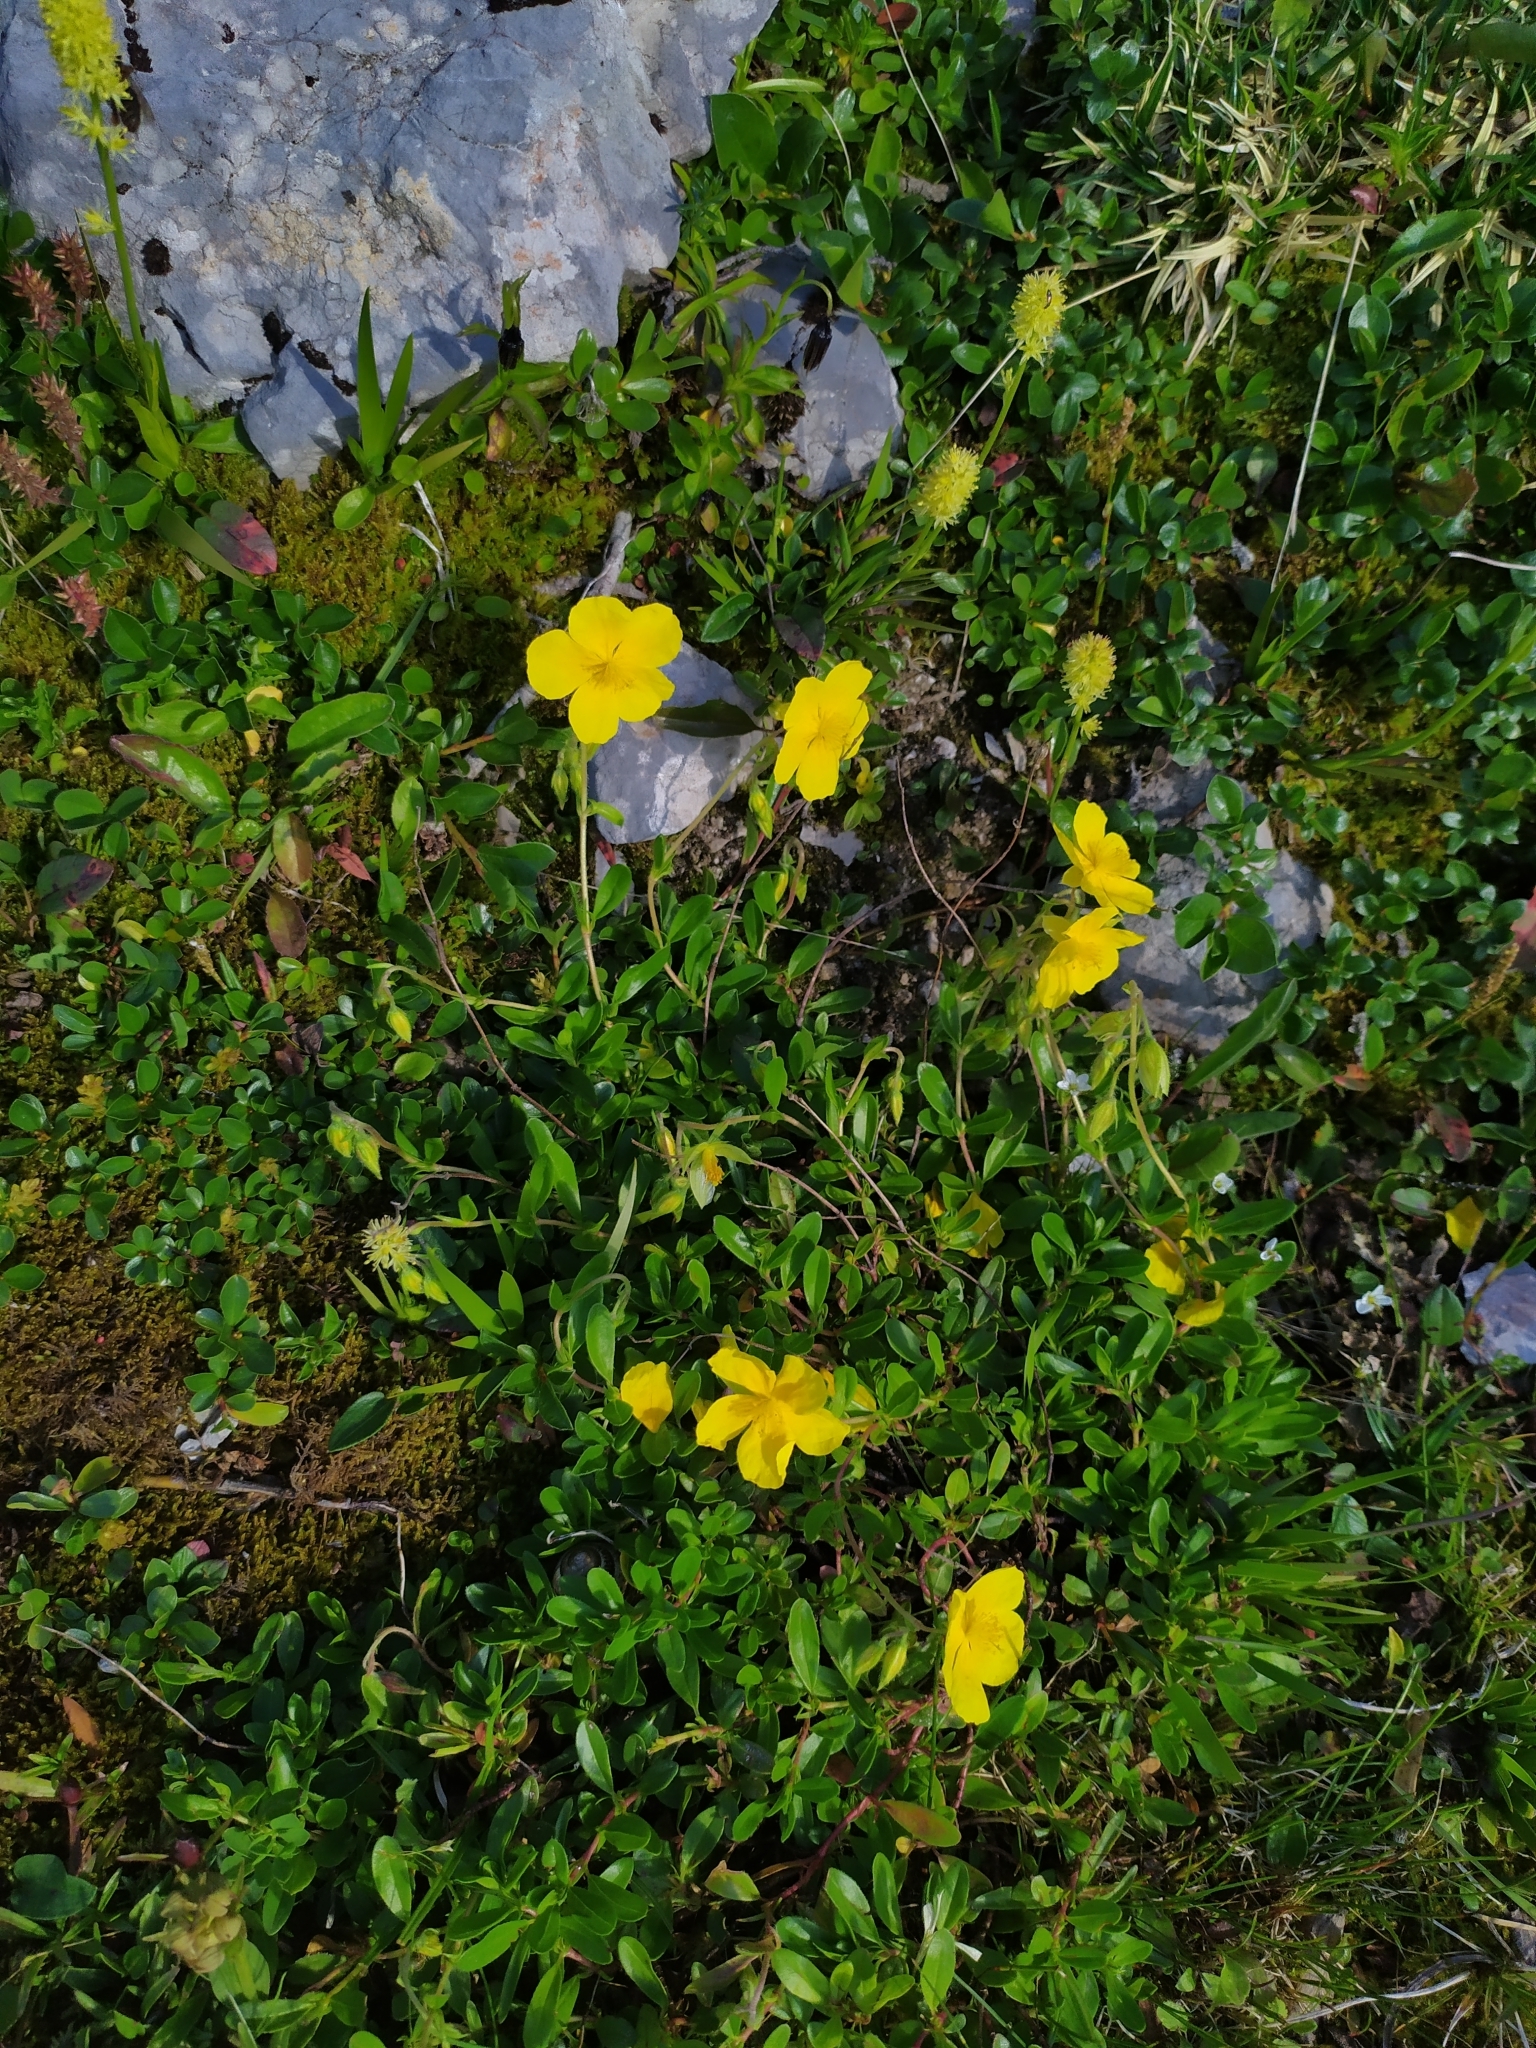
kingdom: Plantae
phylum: Tracheophyta
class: Magnoliopsida
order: Malvales
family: Cistaceae
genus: Helianthemum
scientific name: Helianthemum nummularium
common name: Common rock-rose
